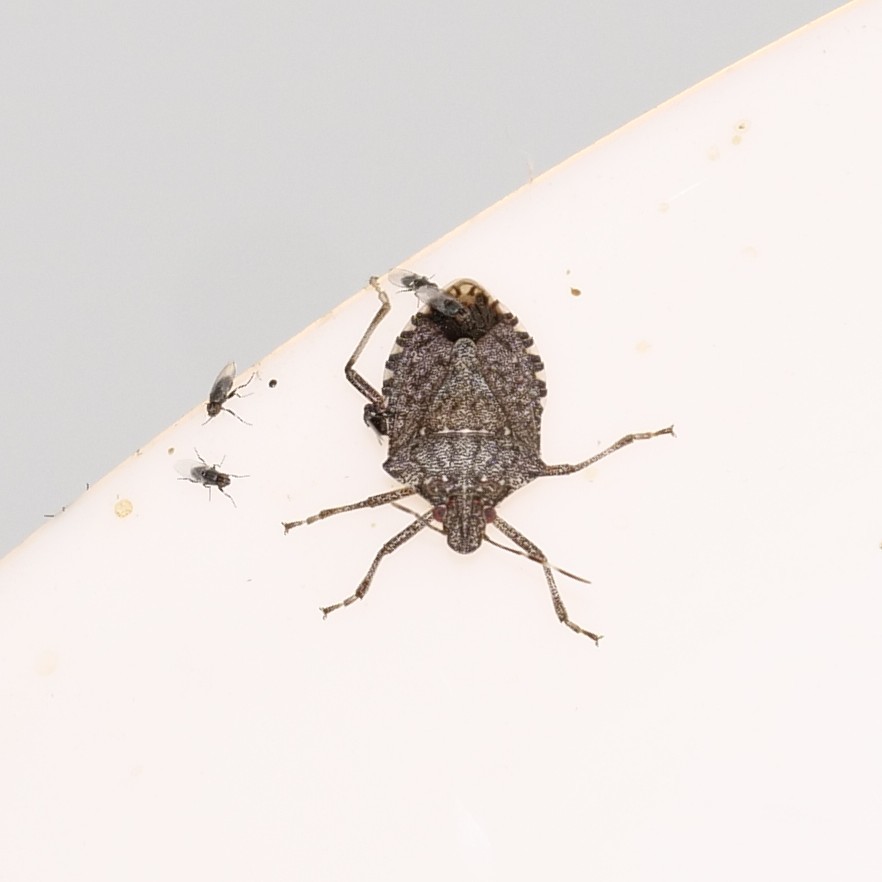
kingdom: Animalia
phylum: Arthropoda
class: Insecta
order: Hemiptera
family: Pentatomidae
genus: Halyomorpha
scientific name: Halyomorpha halys
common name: Brown marmorated stink bug
